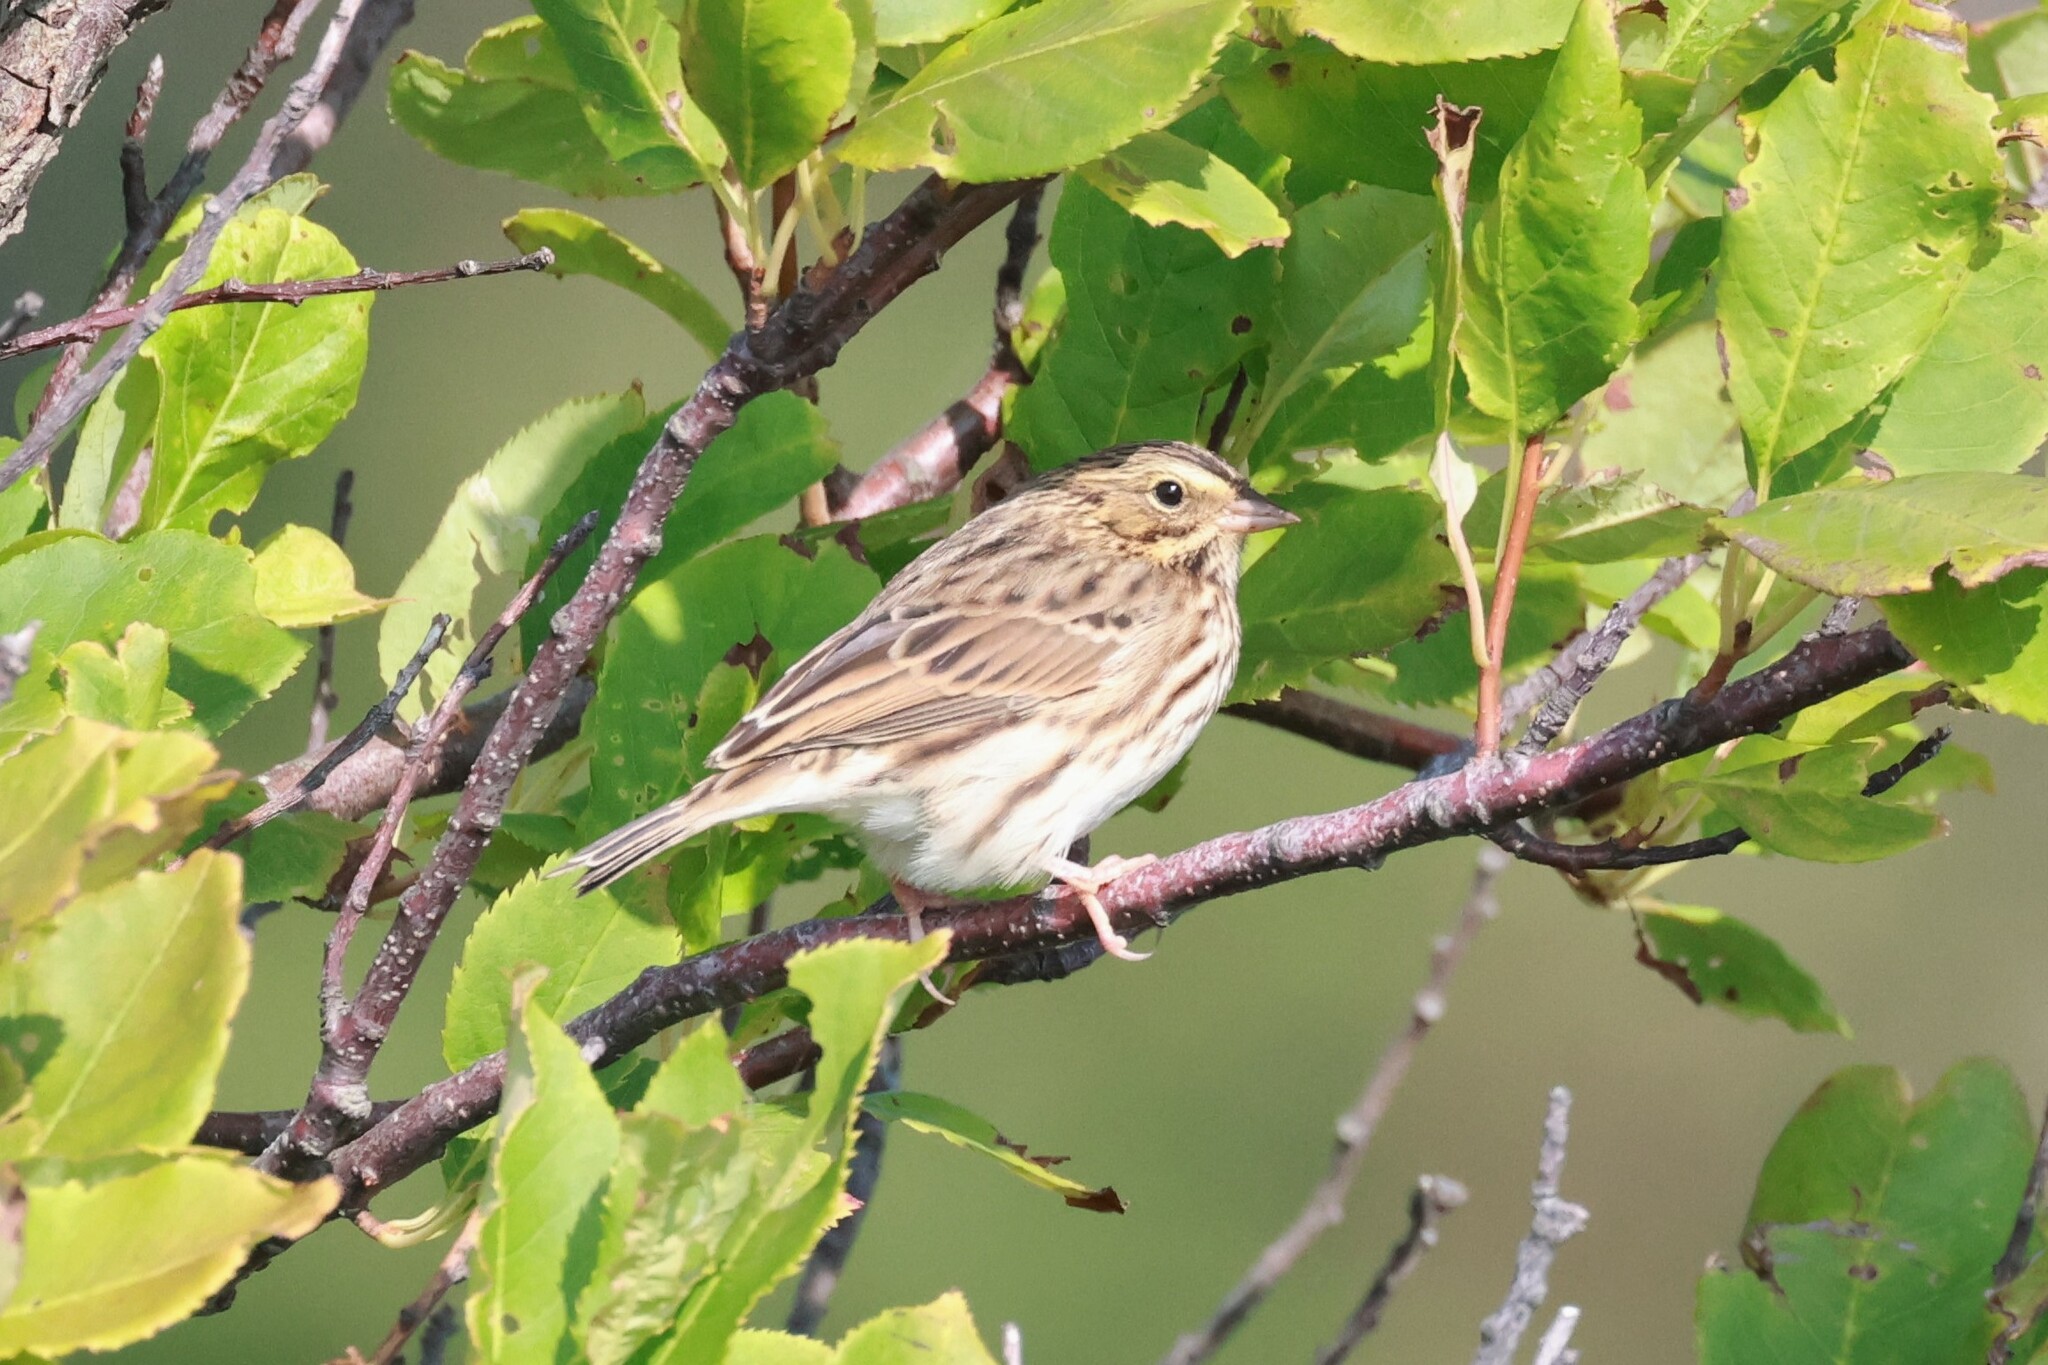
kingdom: Animalia
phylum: Chordata
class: Aves
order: Passeriformes
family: Passerellidae
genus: Passerculus
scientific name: Passerculus sandwichensis
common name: Savannah sparrow
